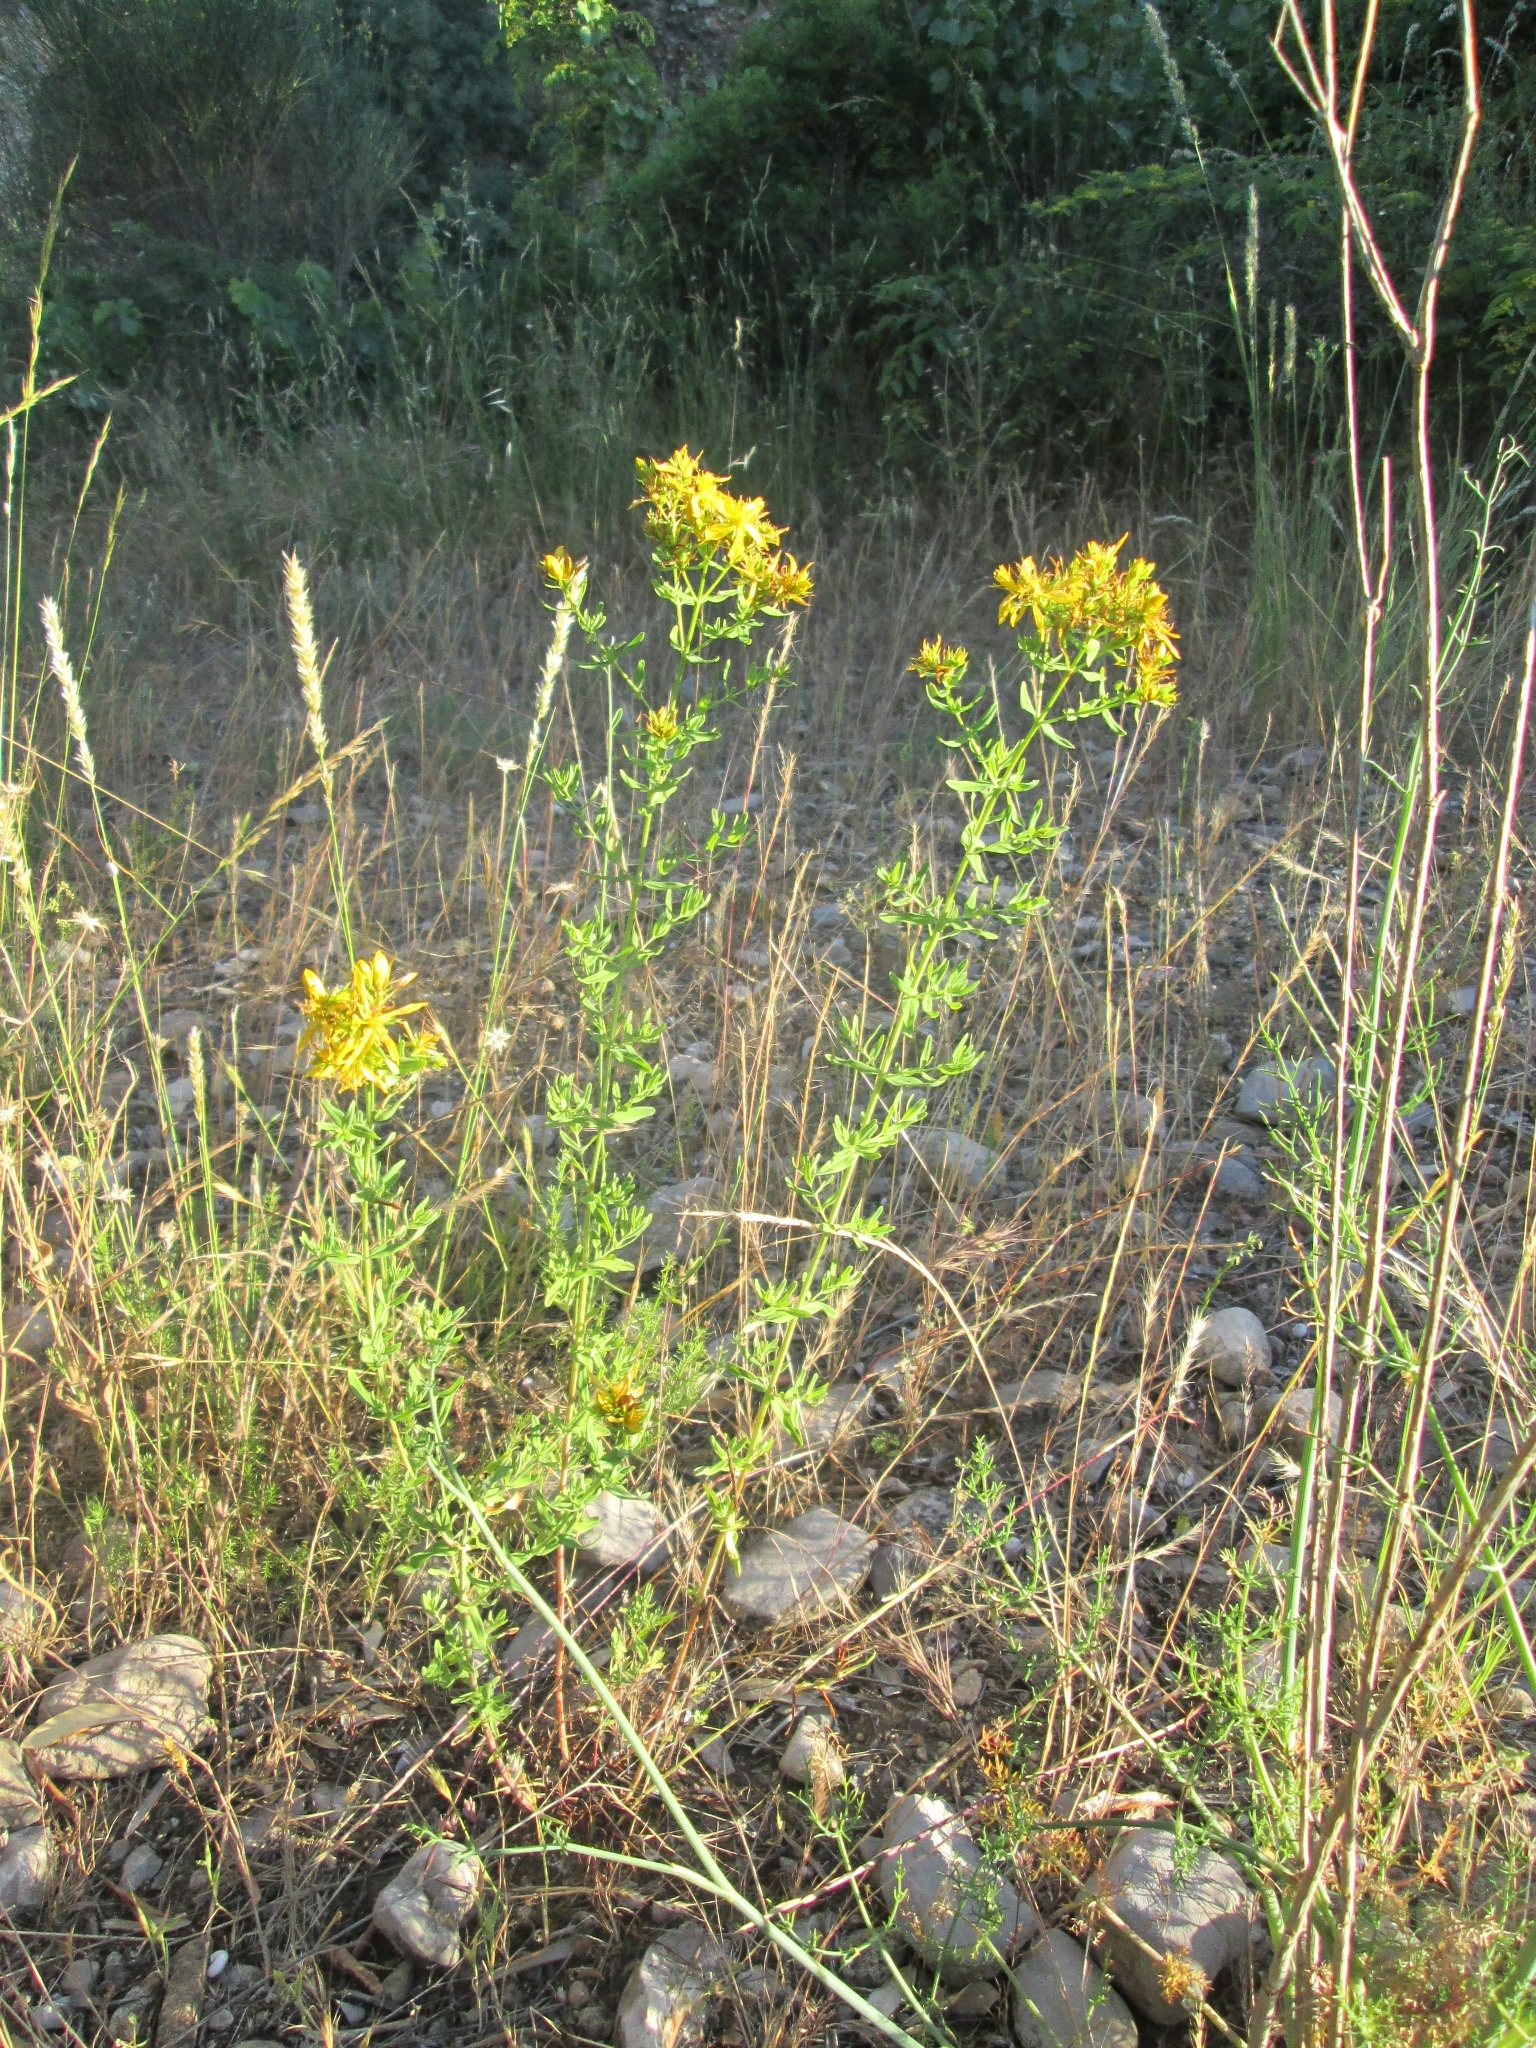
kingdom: Plantae
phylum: Tracheophyta
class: Magnoliopsida
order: Malpighiales
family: Hypericaceae
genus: Hypericum
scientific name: Hypericum perforatum
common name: Common st. johnswort
